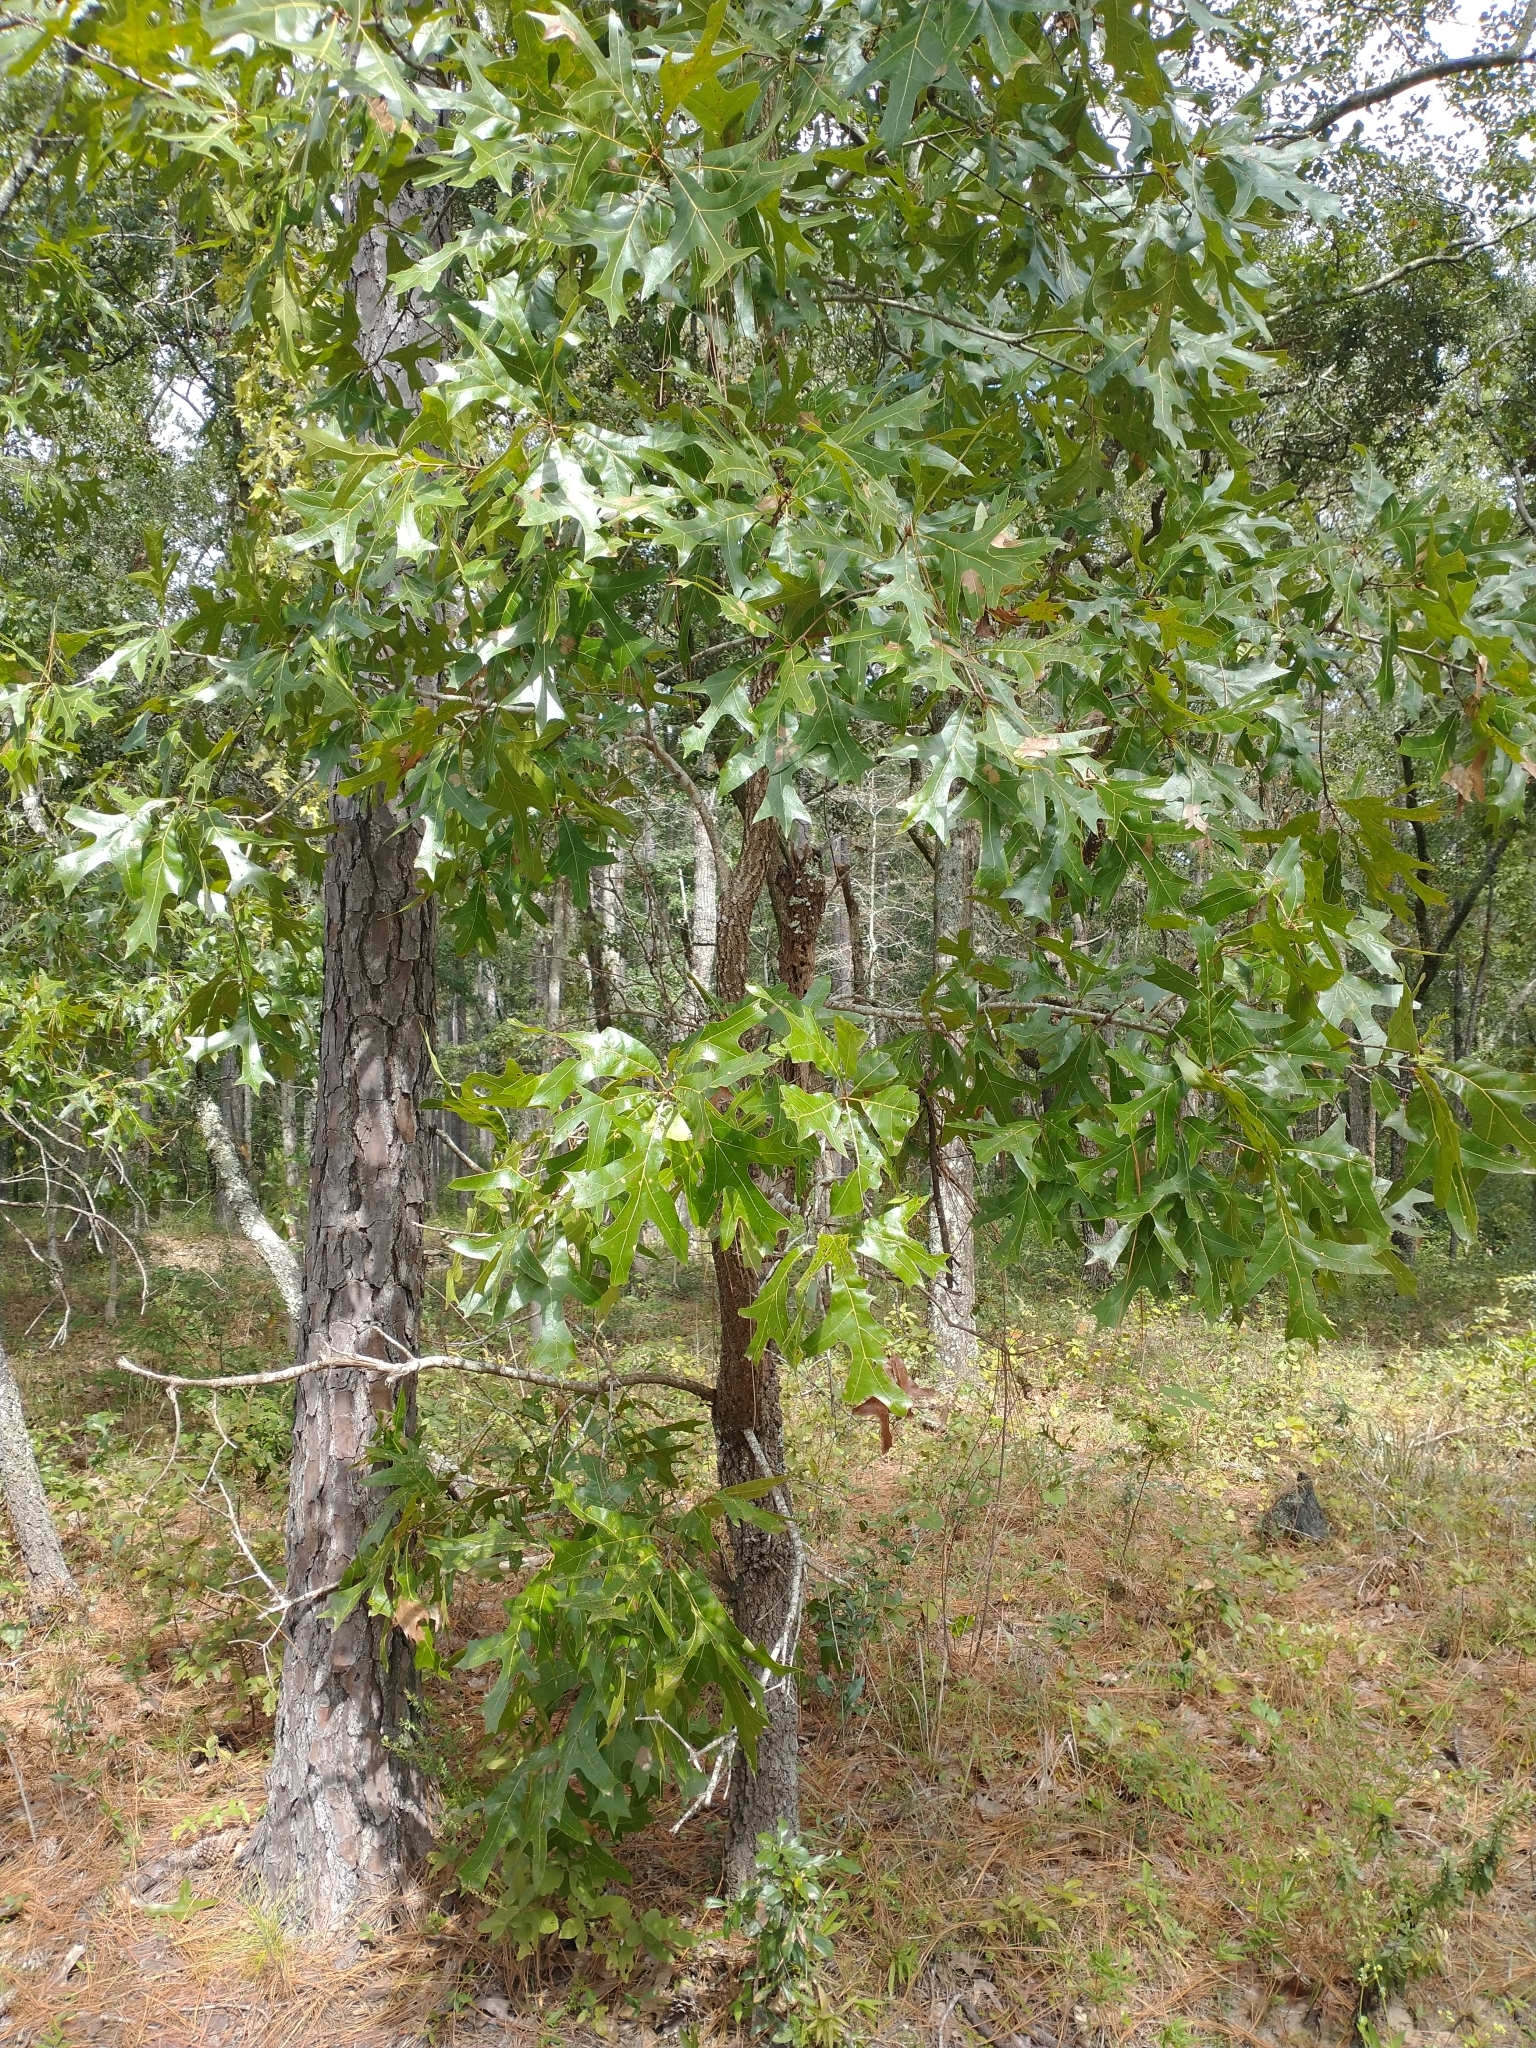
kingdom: Plantae
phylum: Tracheophyta
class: Magnoliopsida
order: Fagales
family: Fagaceae
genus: Quercus
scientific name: Quercus laevis
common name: Turkey oak
